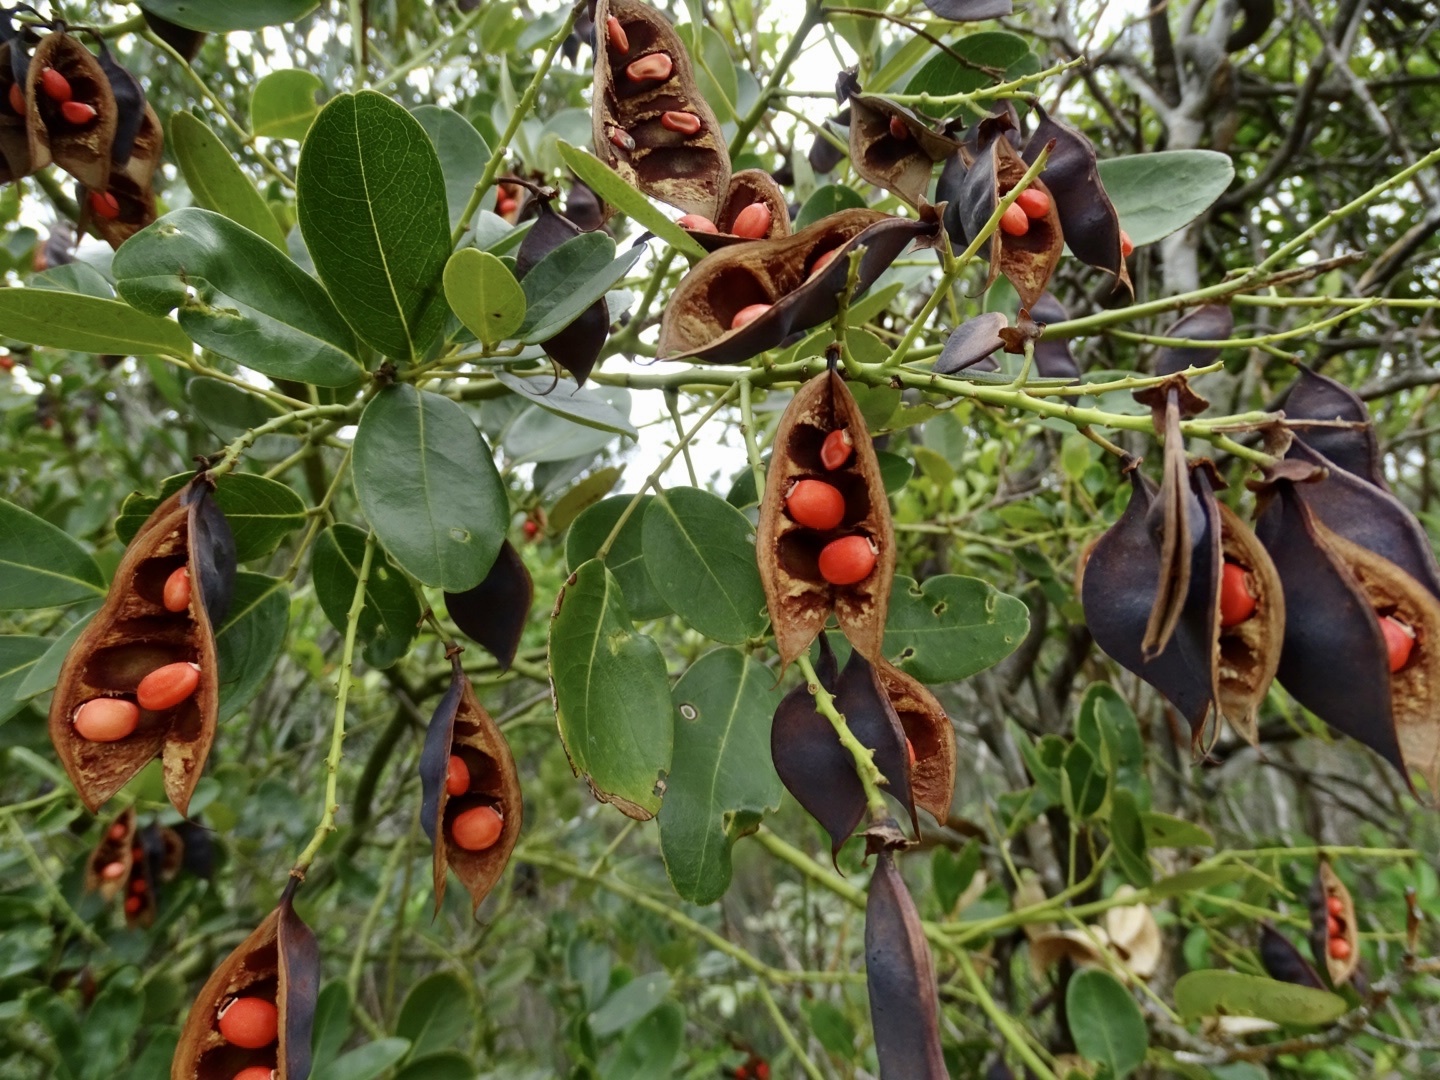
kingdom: Plantae
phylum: Tracheophyta
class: Magnoliopsida
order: Fabales
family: Fabaceae
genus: Ormosia
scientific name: Ormosia emarginata
